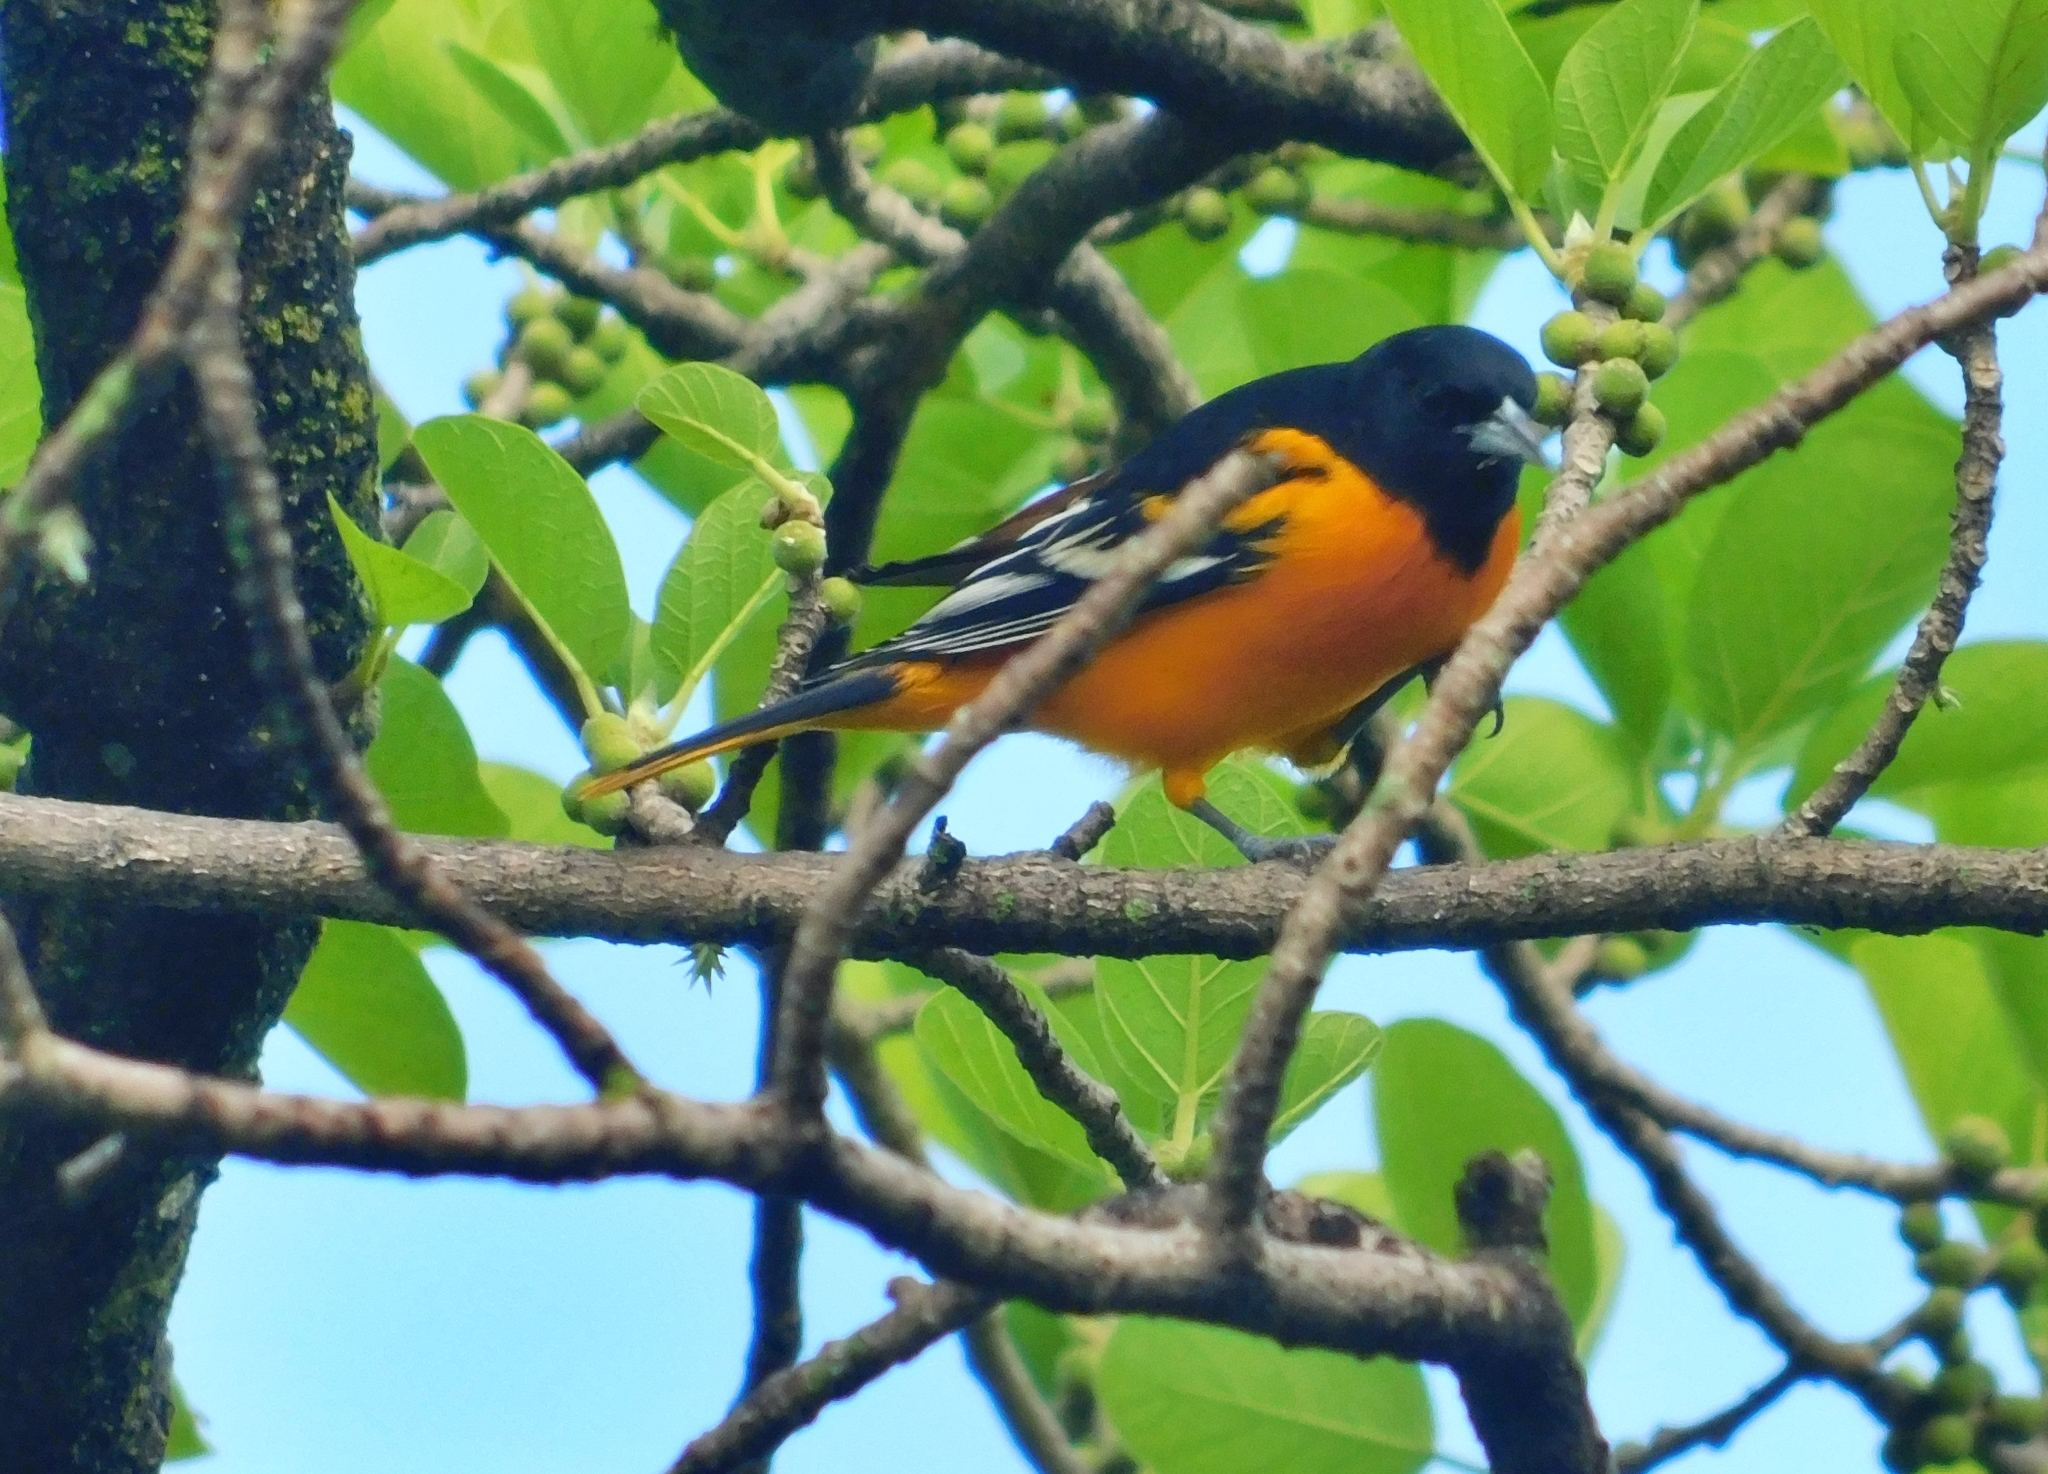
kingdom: Animalia
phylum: Chordata
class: Aves
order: Passeriformes
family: Icteridae
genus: Icterus
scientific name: Icterus galbula
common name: Baltimore oriole
